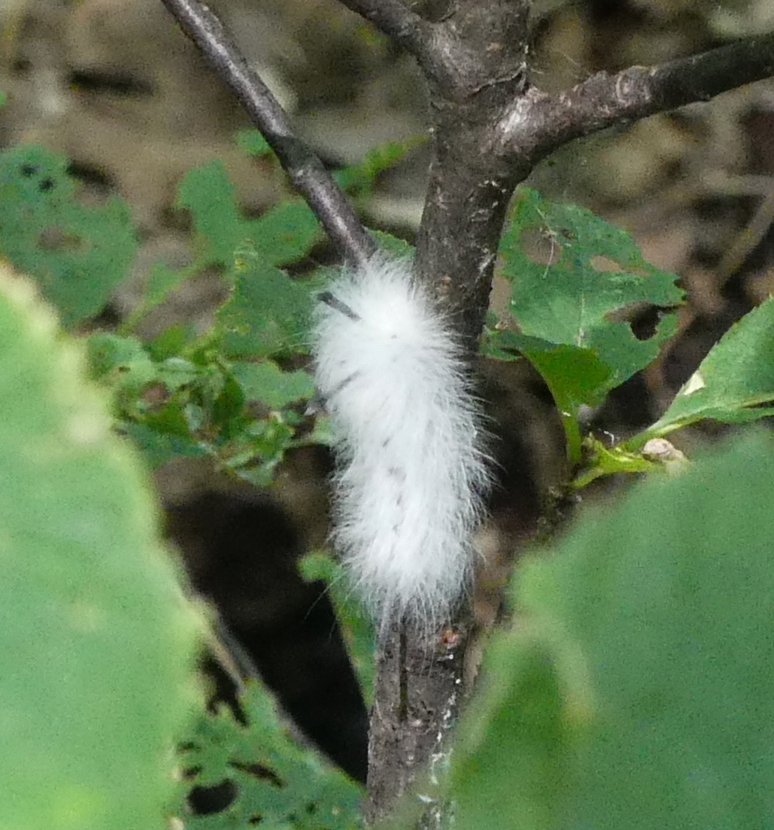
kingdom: Animalia
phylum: Arthropoda
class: Insecta
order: Lepidoptera
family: Apatelodidae
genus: Hygrochroa
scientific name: Hygrochroa Apatelodes torrefacta
